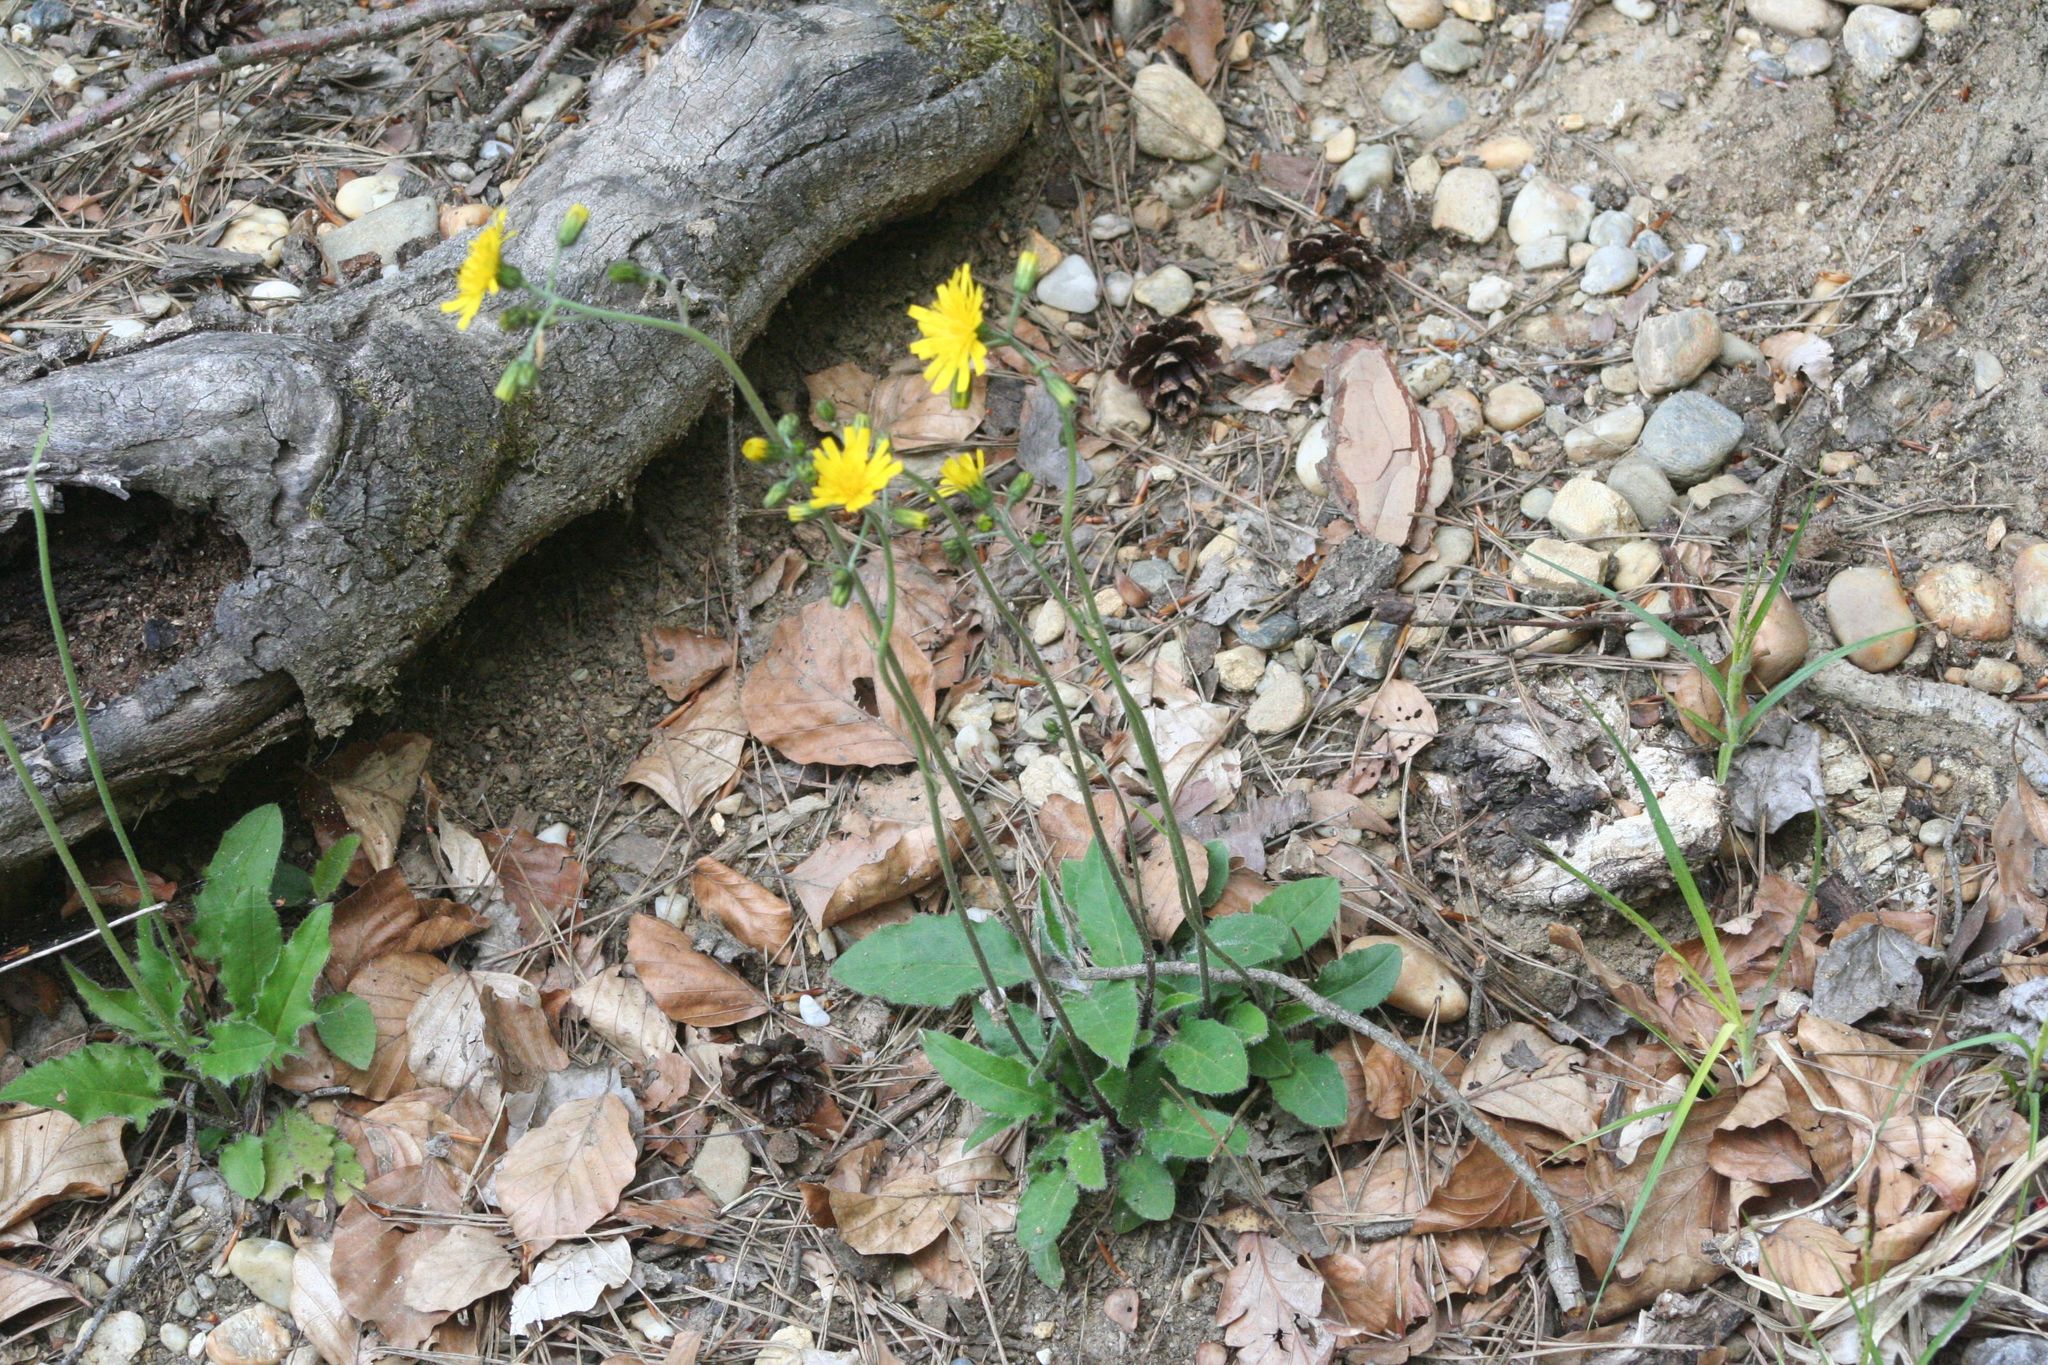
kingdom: Plantae
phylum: Tracheophyta
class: Magnoliopsida
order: Asterales
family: Asteraceae
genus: Hieracium
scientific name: Hieracium murorum
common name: Wall hawkweed
